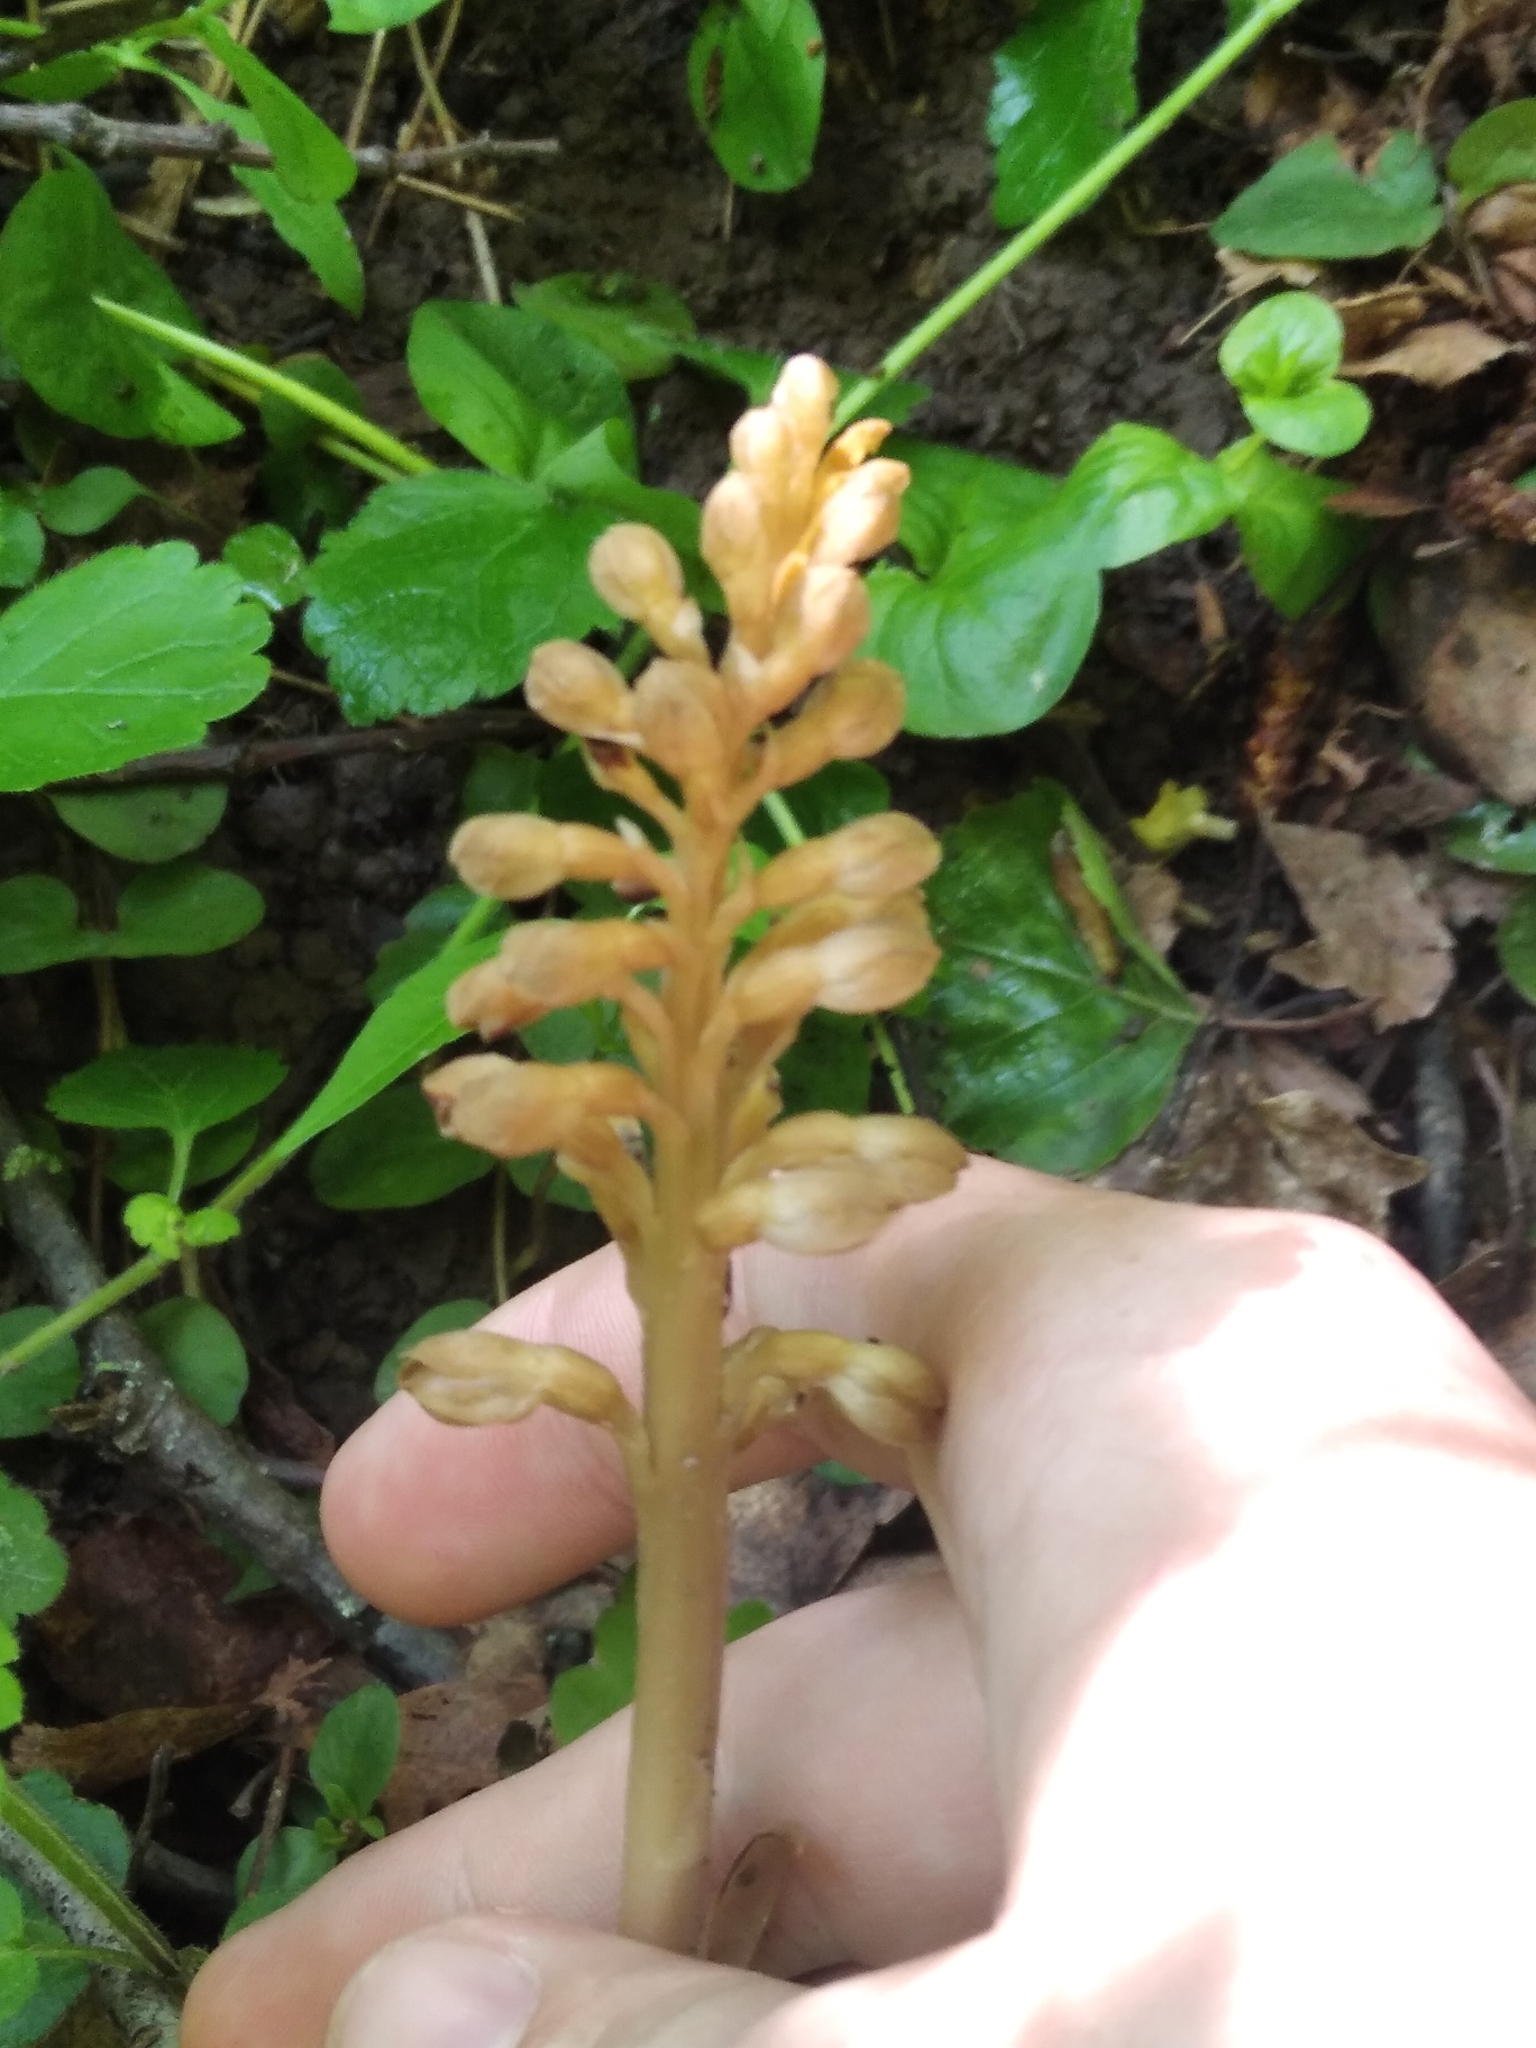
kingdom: Plantae
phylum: Tracheophyta
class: Liliopsida
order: Asparagales
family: Orchidaceae
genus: Neottia
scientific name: Neottia nidus-avis
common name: Bird's-nest orchid
